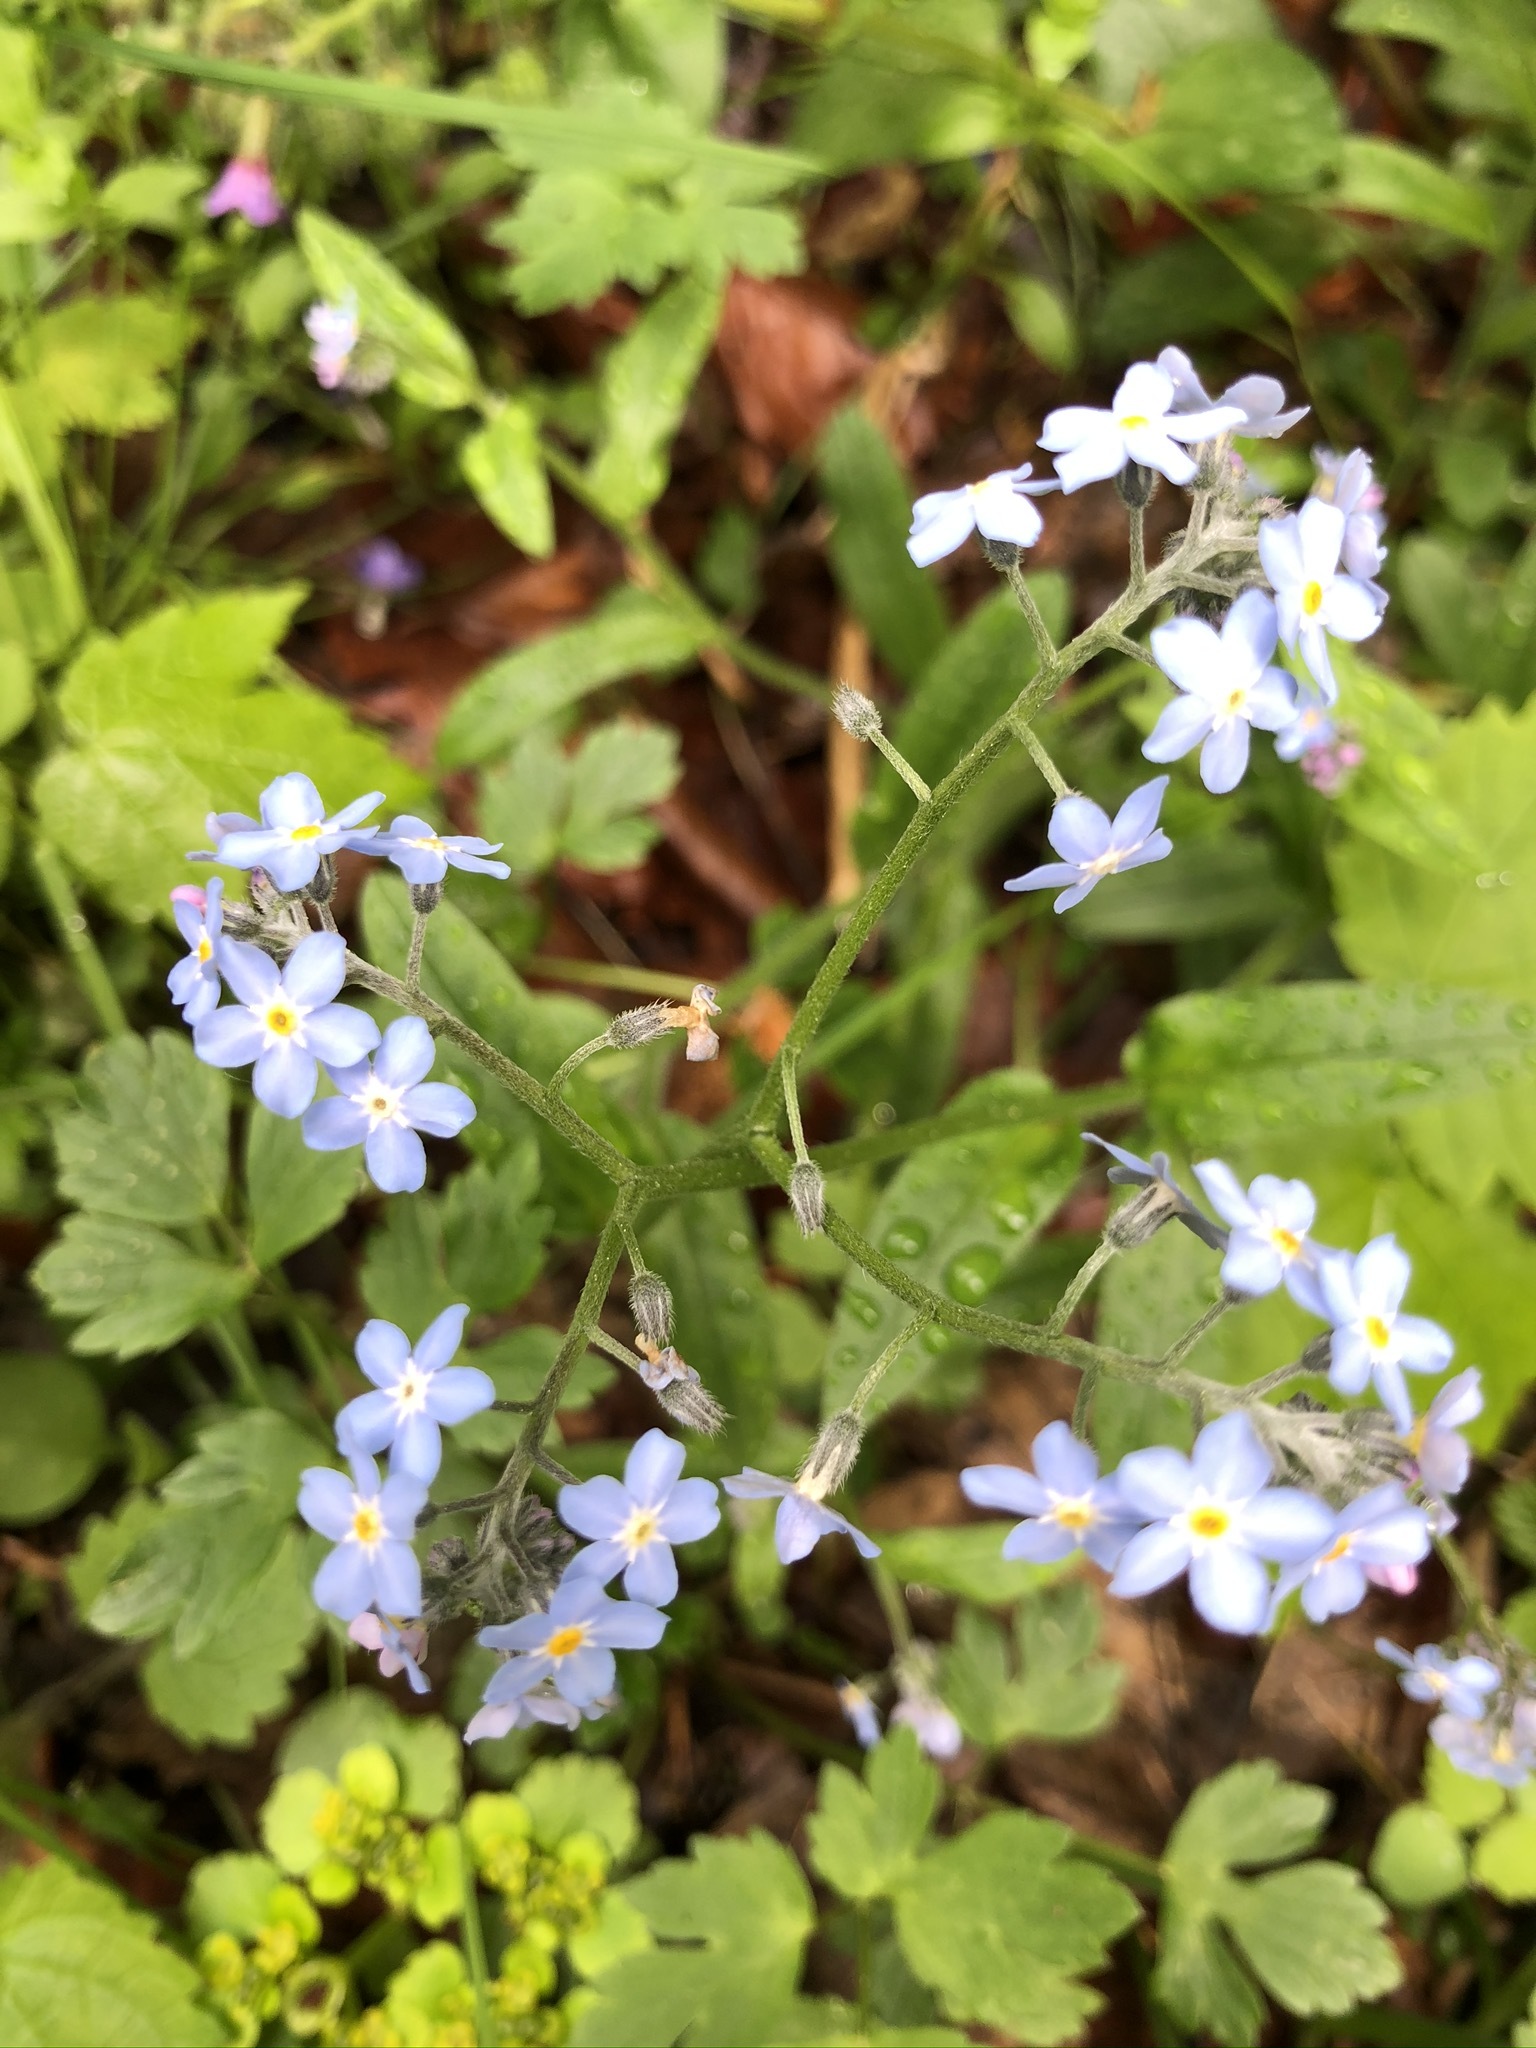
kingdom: Plantae
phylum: Tracheophyta
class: Magnoliopsida
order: Boraginales
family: Boraginaceae
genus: Myosotis
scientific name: Myosotis sylvatica
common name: Wood forget-me-not
